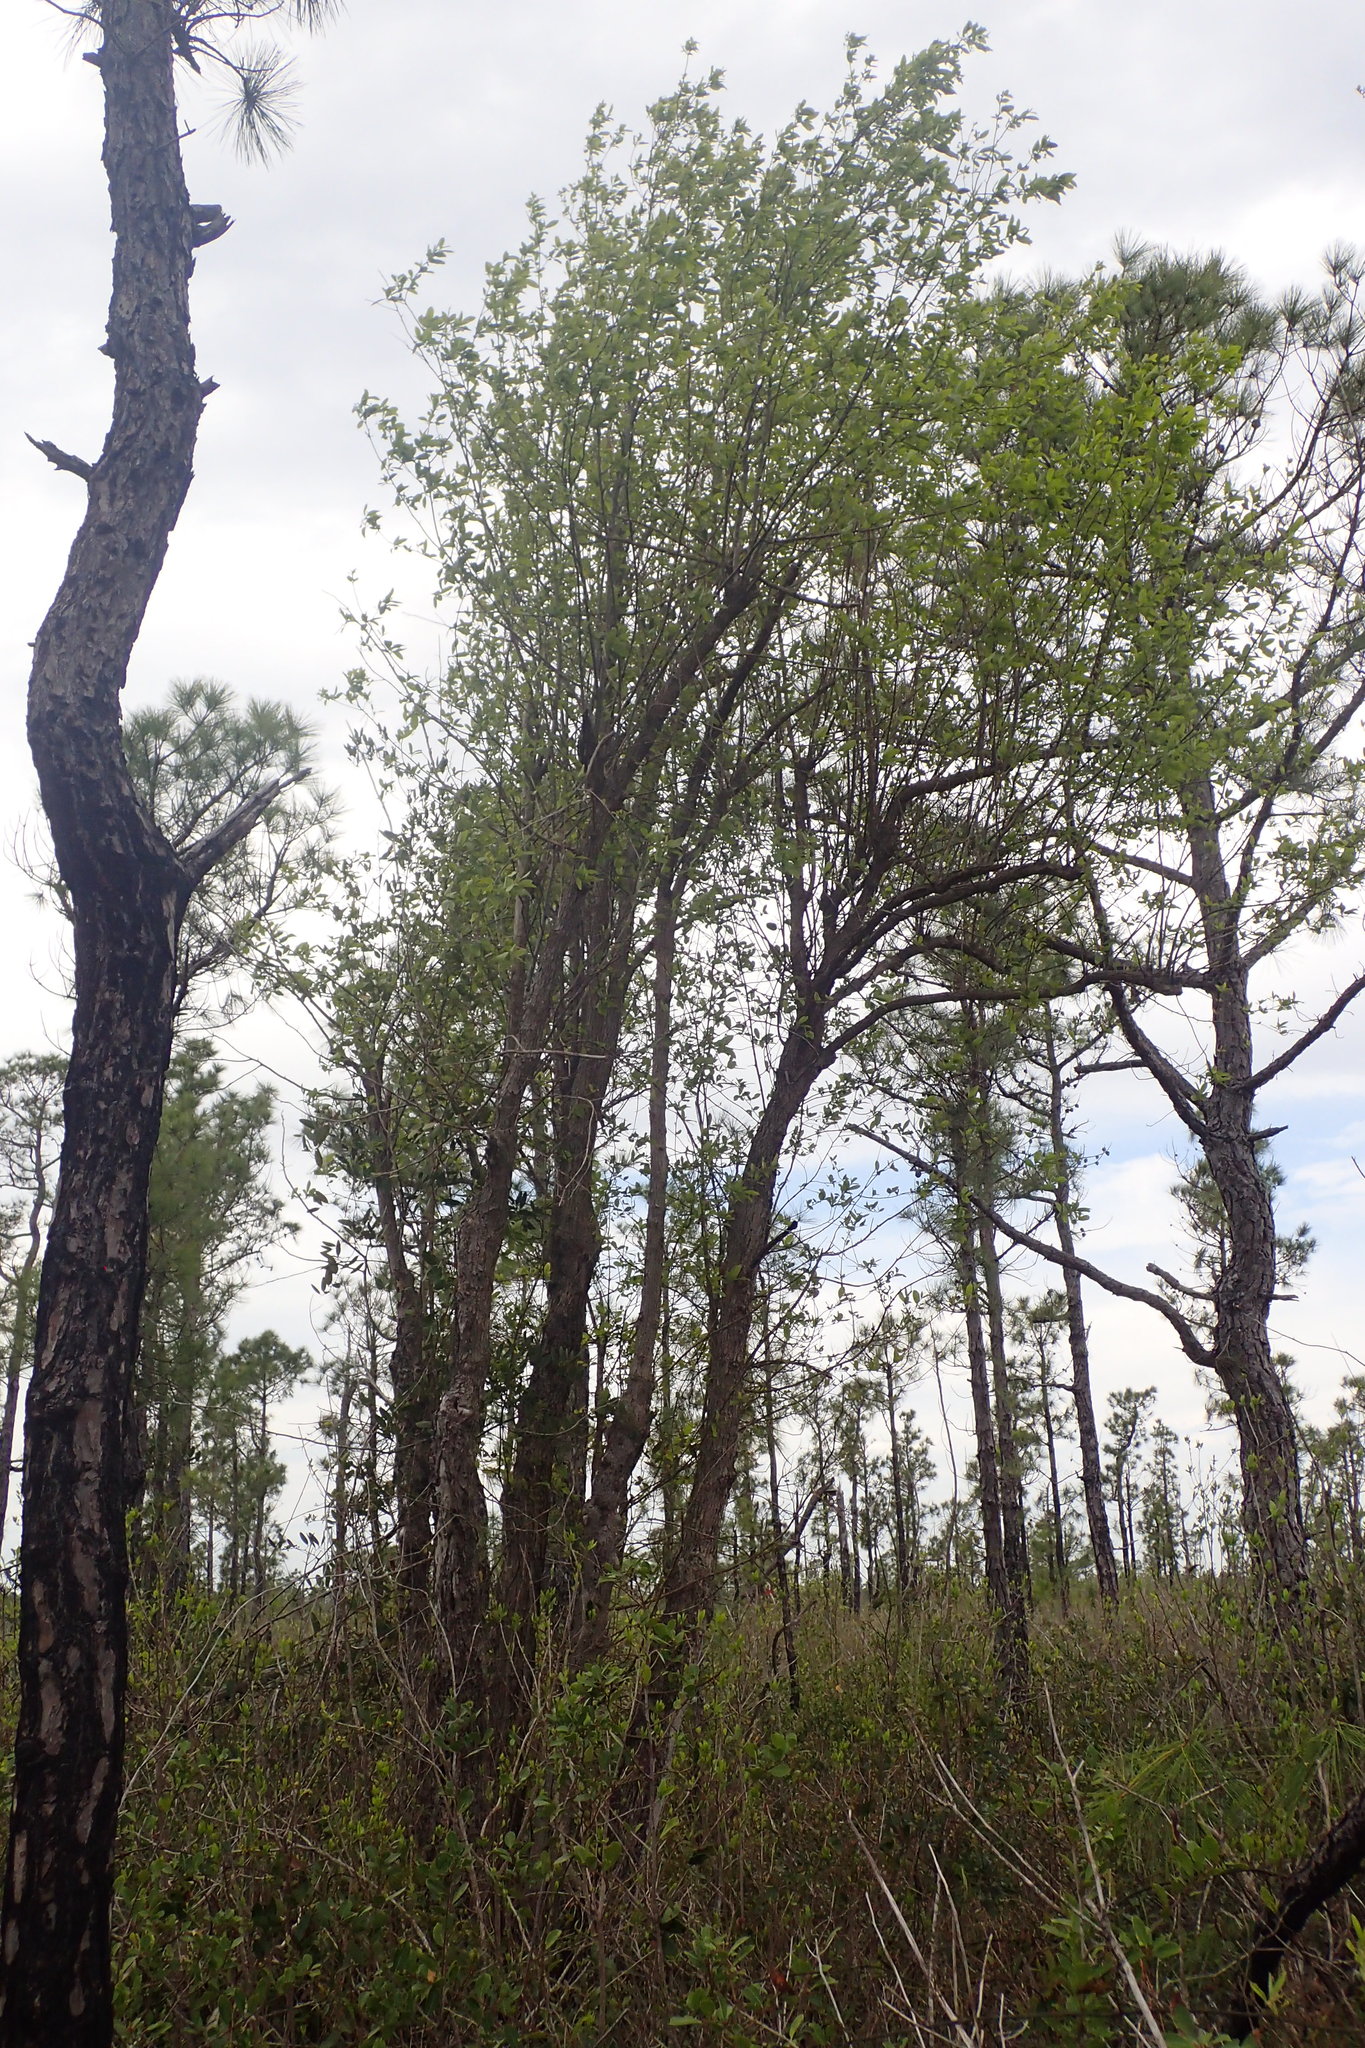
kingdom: Plantae
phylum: Tracheophyta
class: Magnoliopsida
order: Cornales
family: Nyssaceae
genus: Nyssa
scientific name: Nyssa biflora
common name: Swamp blackgum
